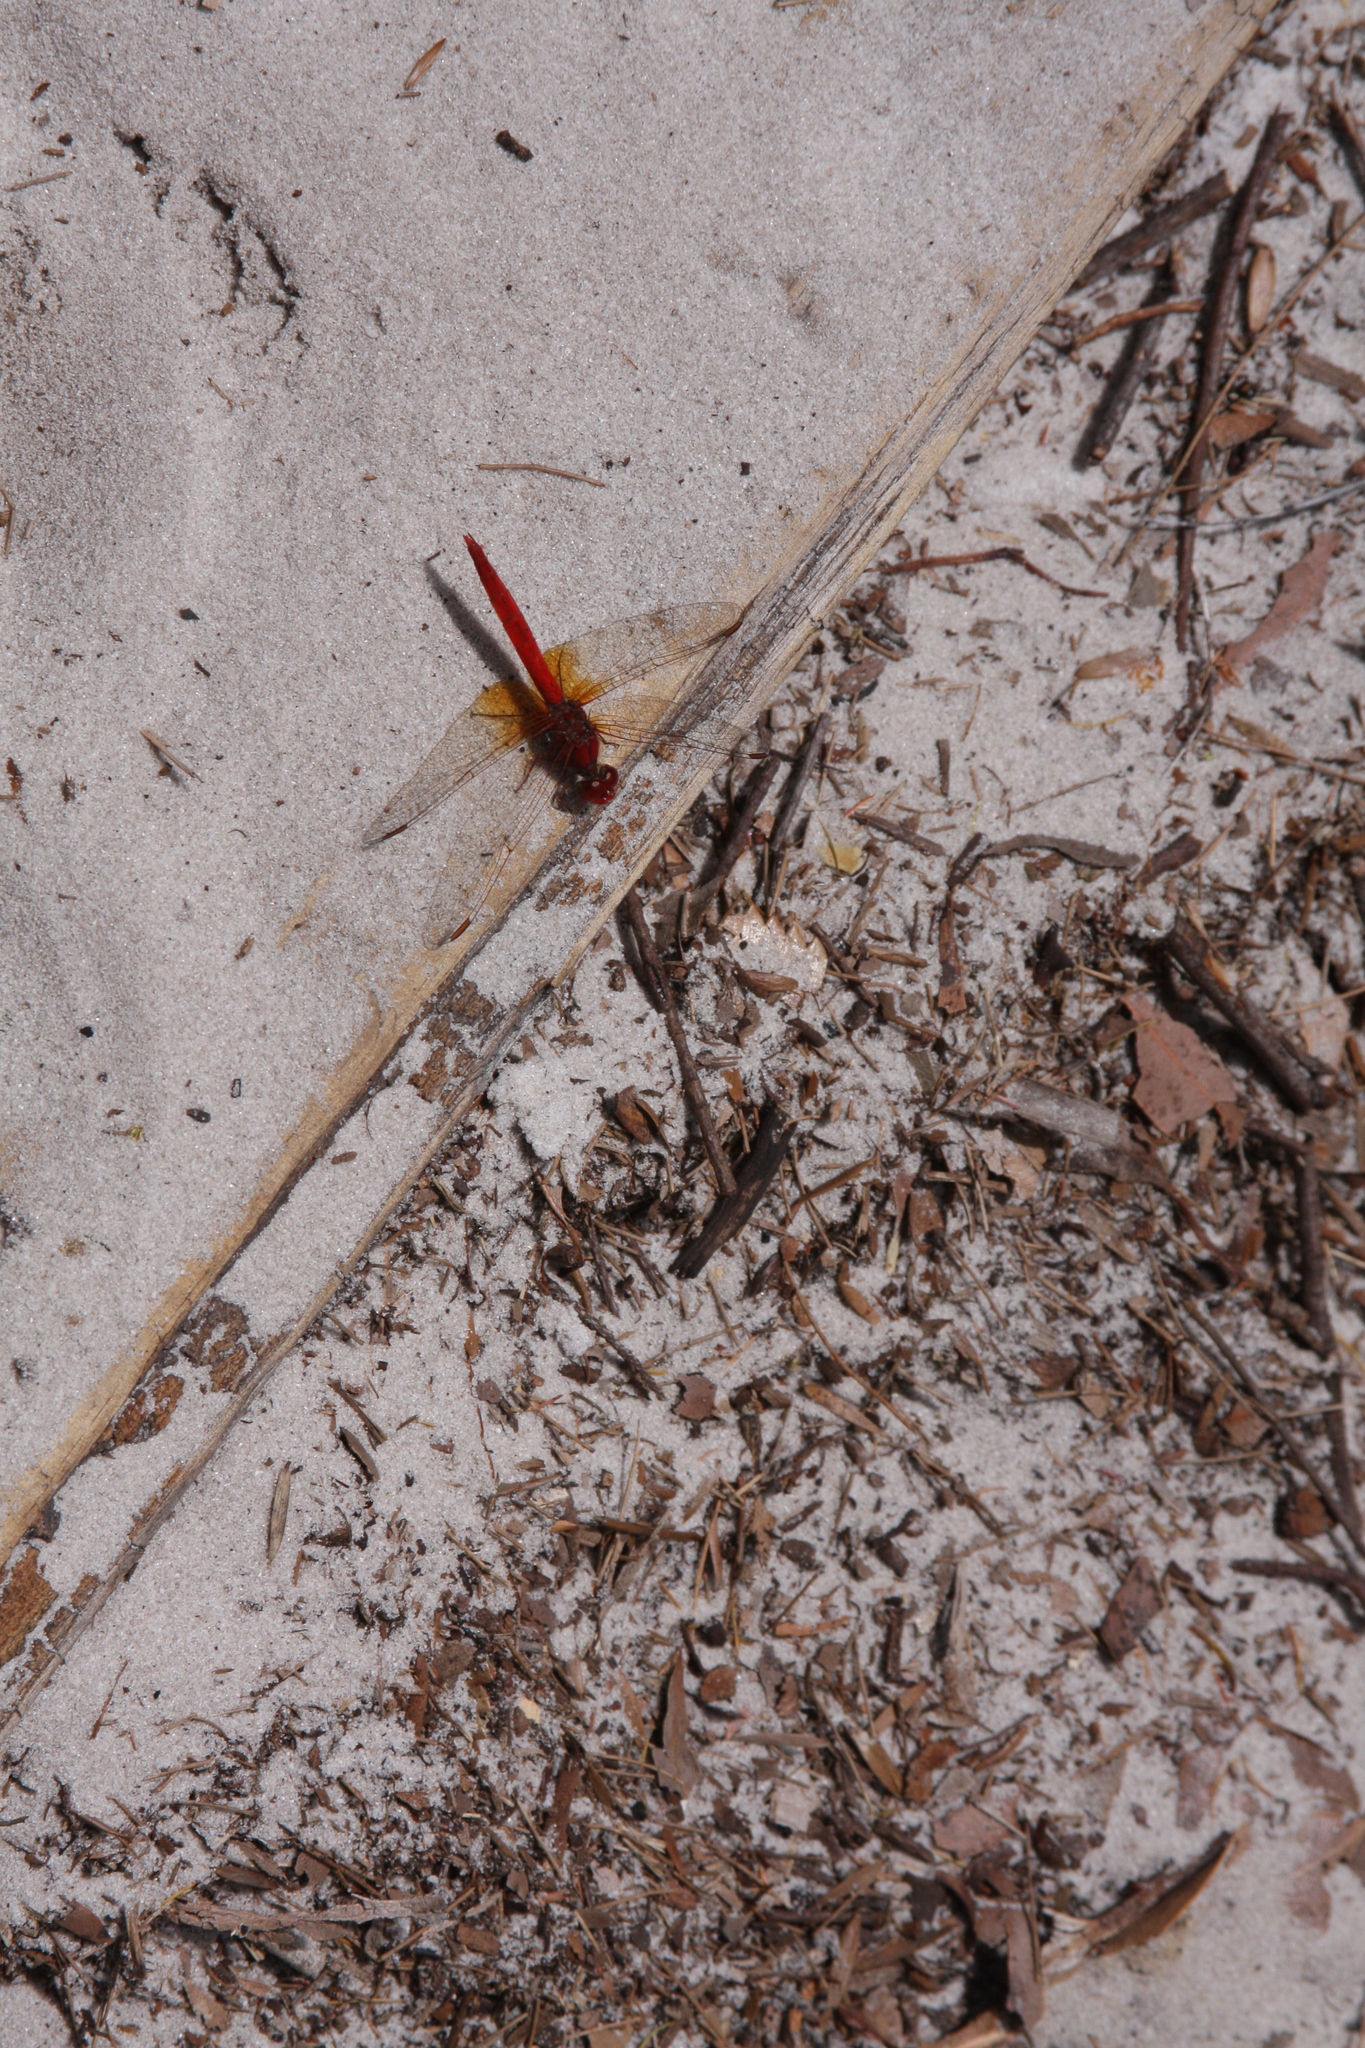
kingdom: Animalia
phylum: Arthropoda
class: Insecta
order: Odonata
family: Libellulidae
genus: Diplacodes
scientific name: Diplacodes haematodes
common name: Scarlet percher
